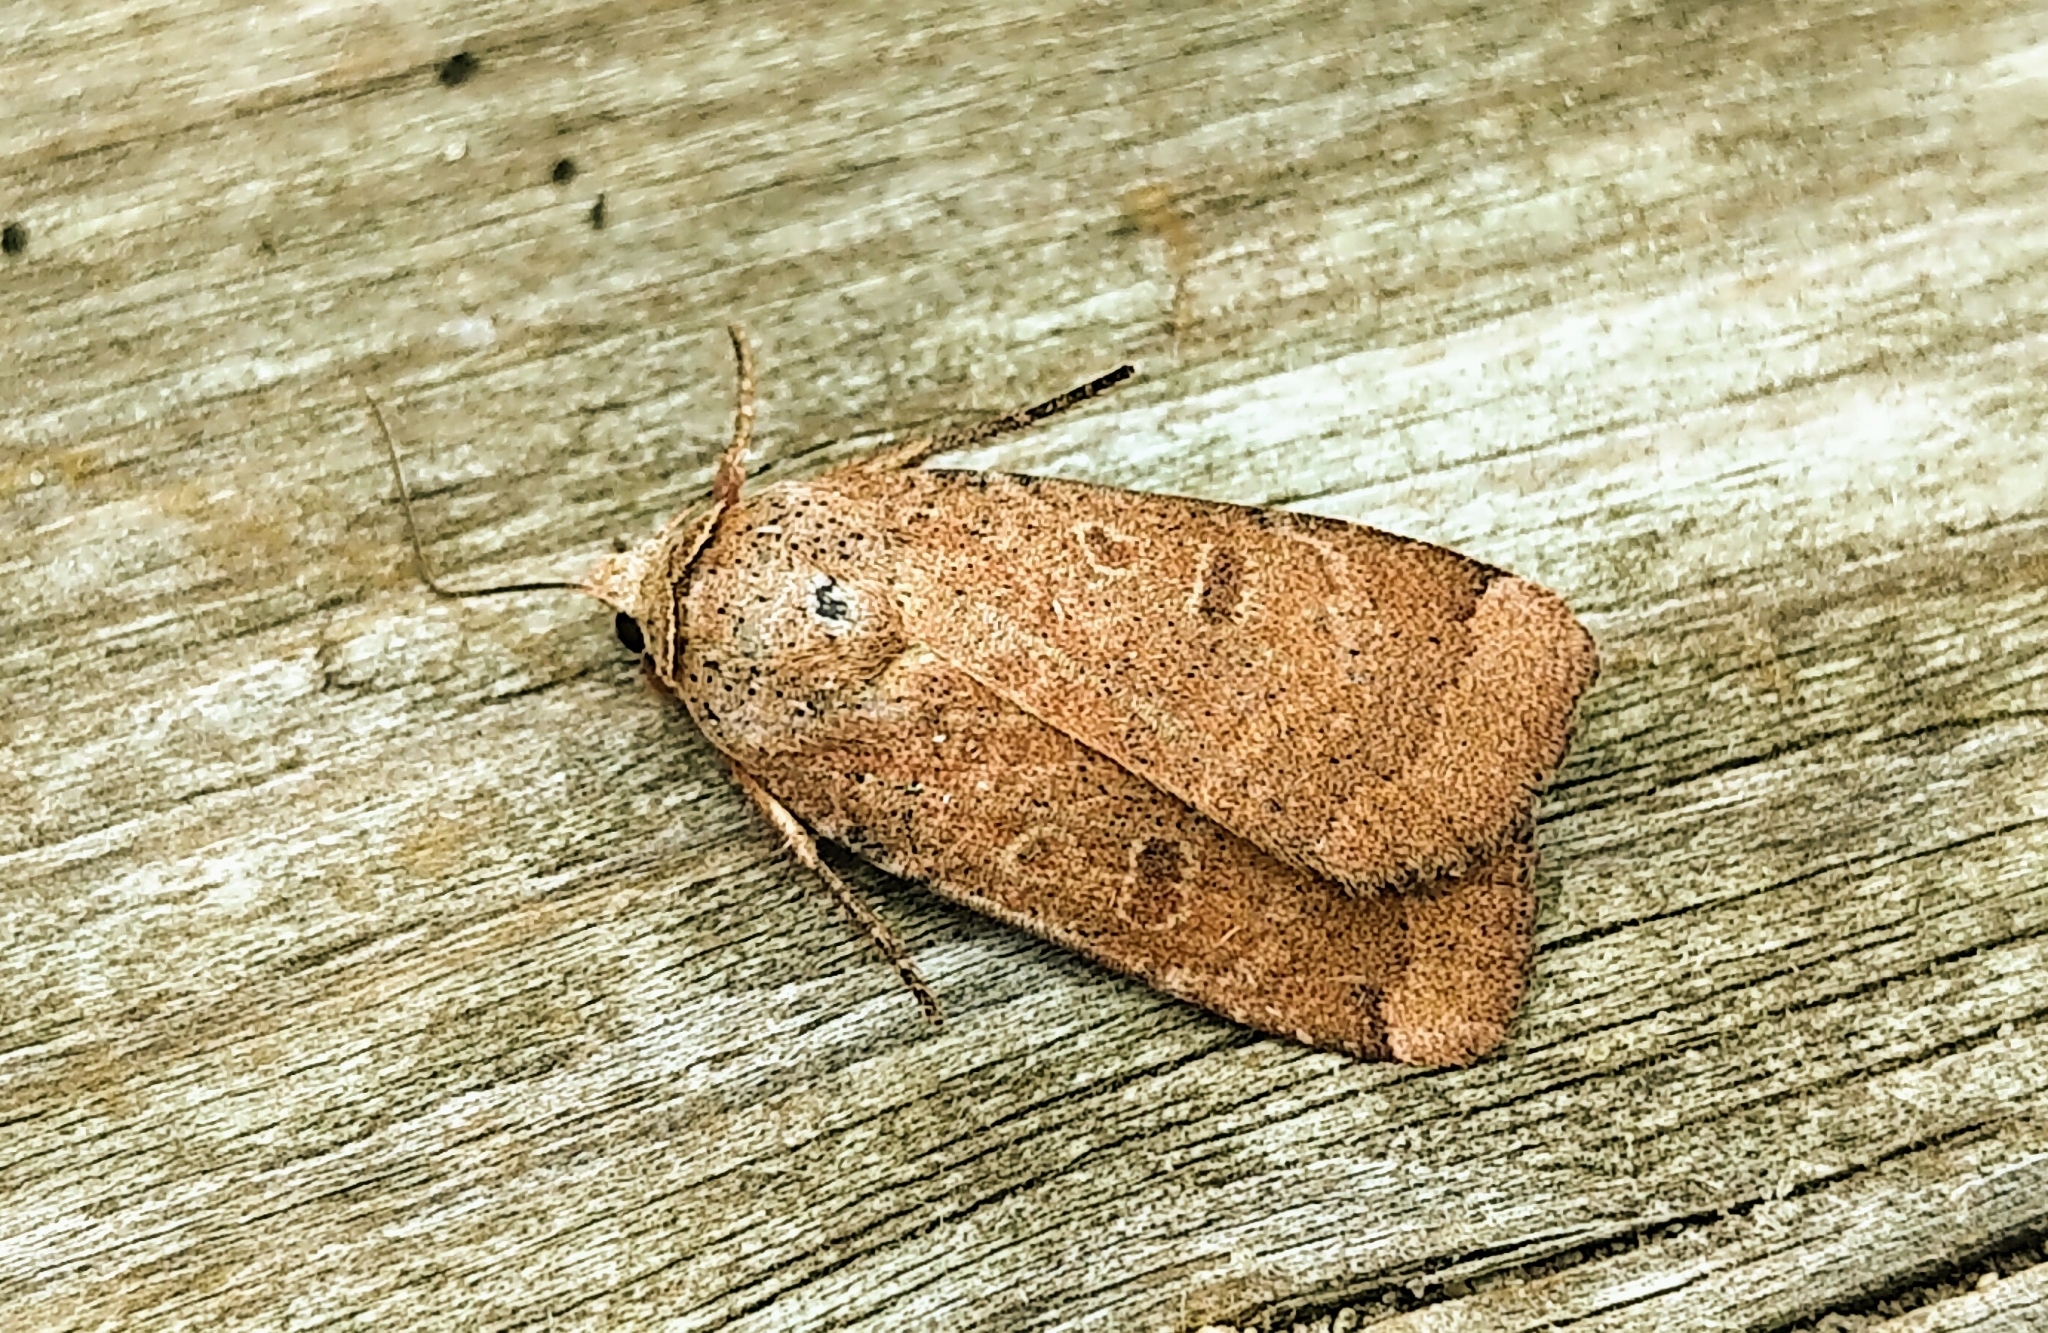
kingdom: Animalia
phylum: Arthropoda
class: Insecta
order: Lepidoptera
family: Noctuidae
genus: Abagrotis
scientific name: Abagrotis cupida
